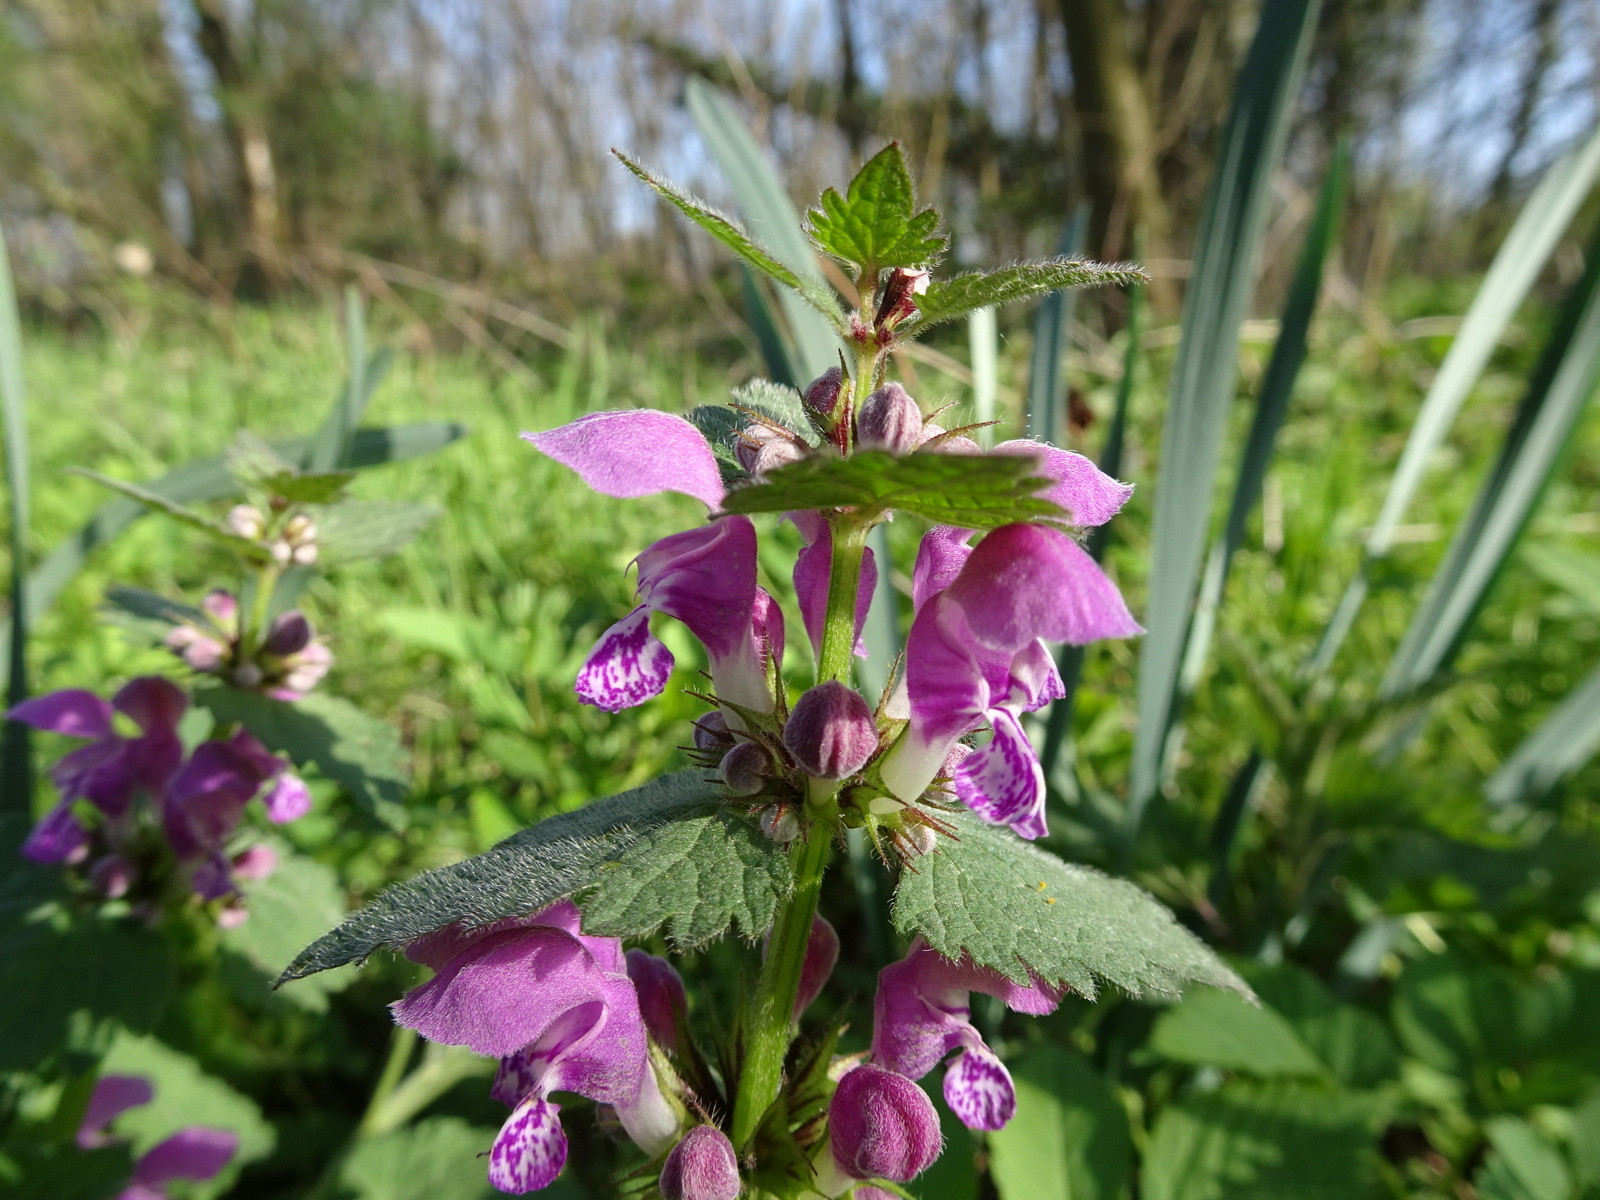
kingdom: Plantae
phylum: Tracheophyta
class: Magnoliopsida
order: Lamiales
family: Lamiaceae
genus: Lamium
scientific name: Lamium maculatum
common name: Spotted dead-nettle
